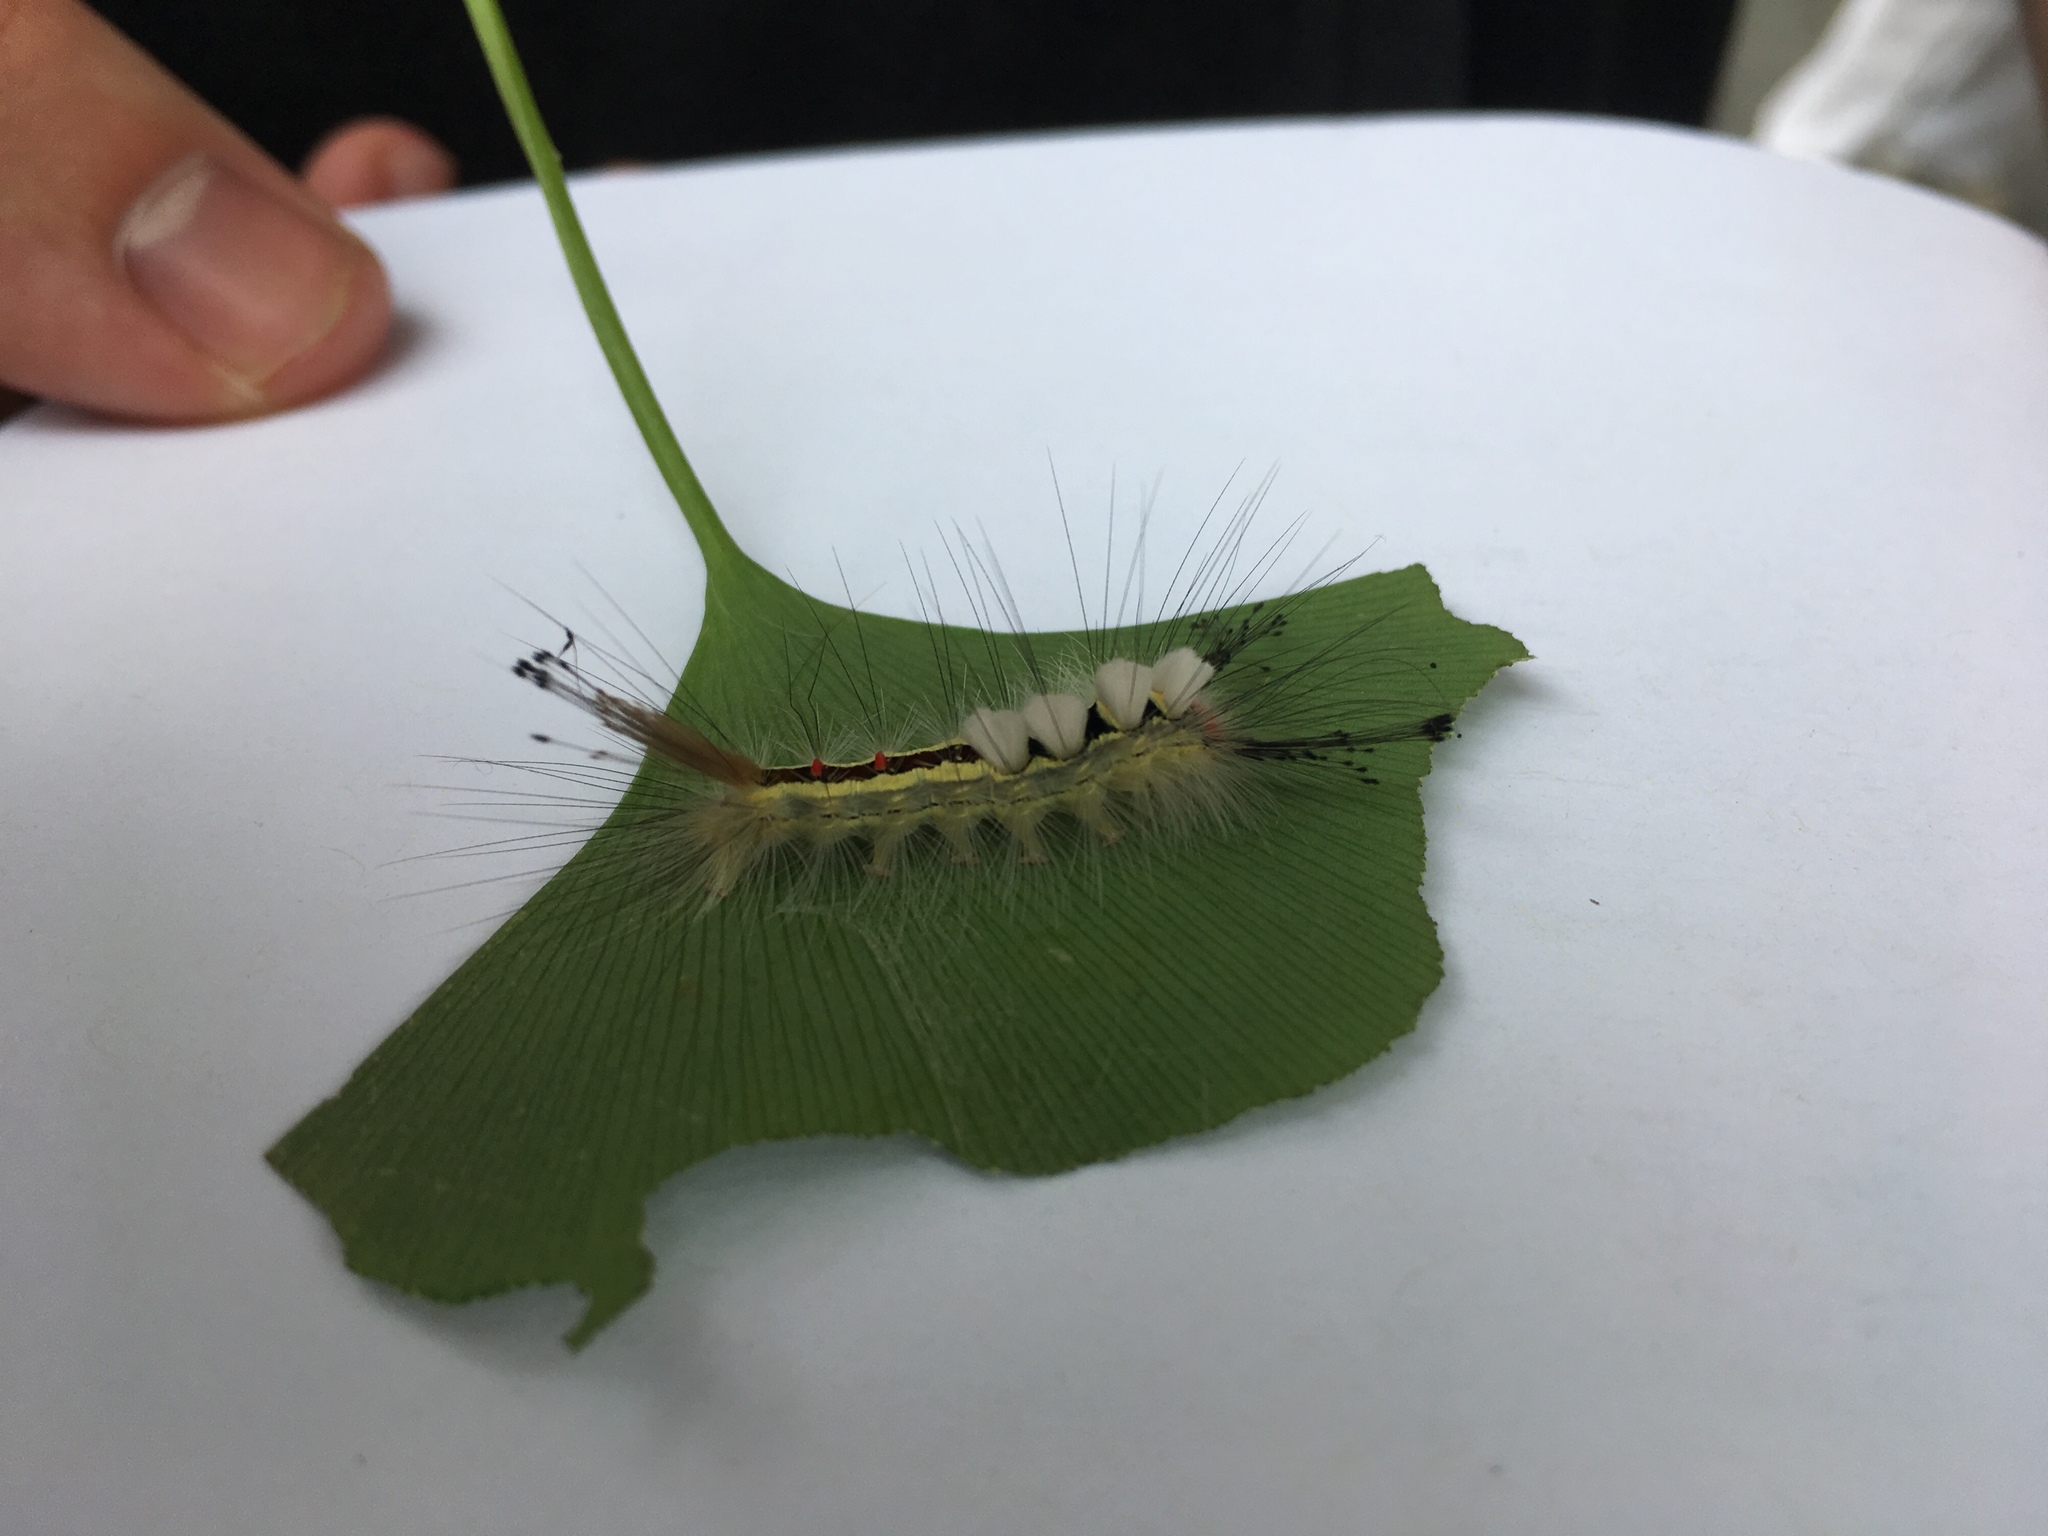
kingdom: Animalia
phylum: Arthropoda
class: Insecta
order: Lepidoptera
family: Erebidae
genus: Orgyia
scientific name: Orgyia leucostigma
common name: White-marked tussock moth
